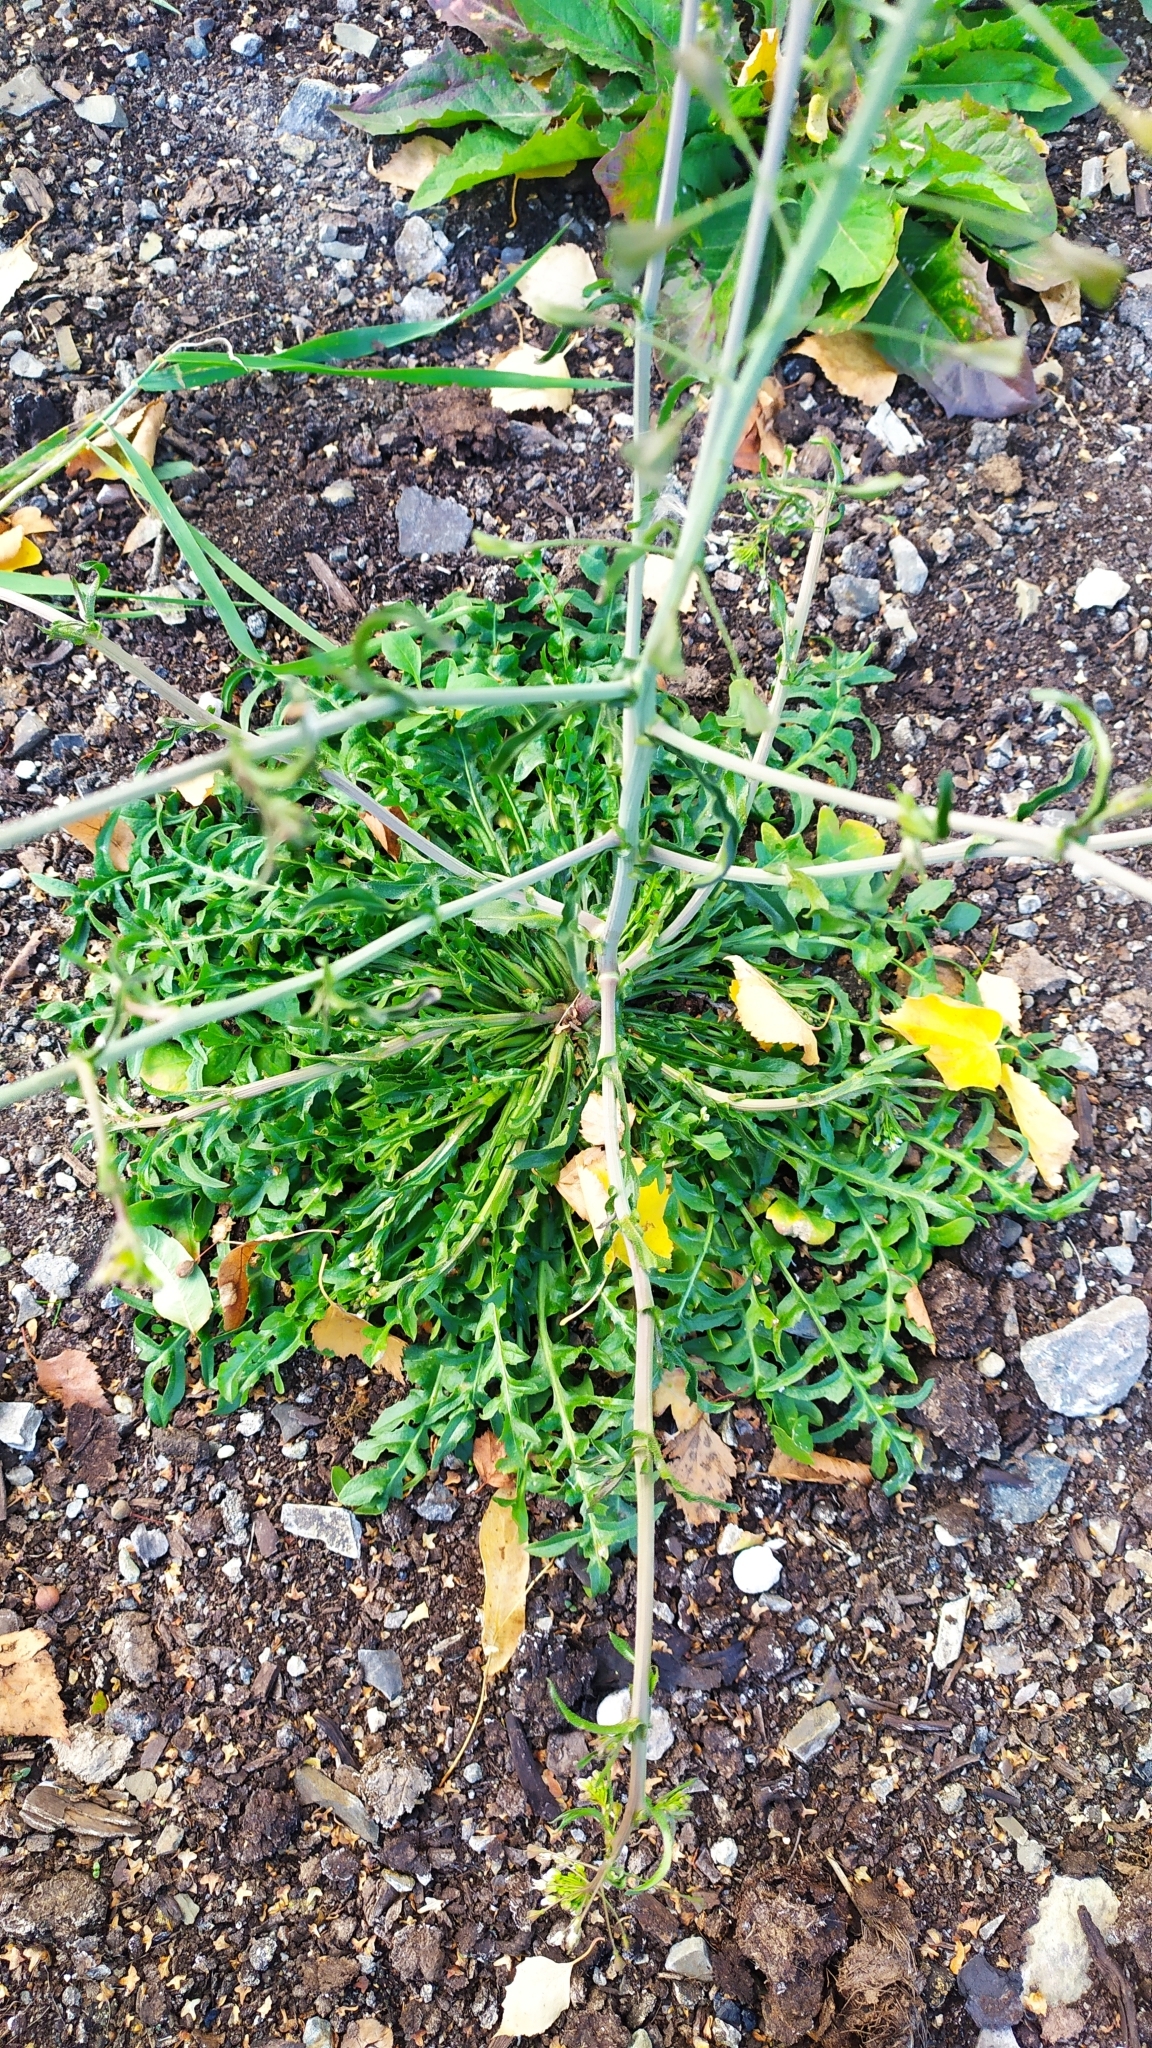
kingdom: Plantae
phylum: Tracheophyta
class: Magnoliopsida
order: Brassicales
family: Brassicaceae
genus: Capsella
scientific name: Capsella bursa-pastoris
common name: Shepherd's purse
